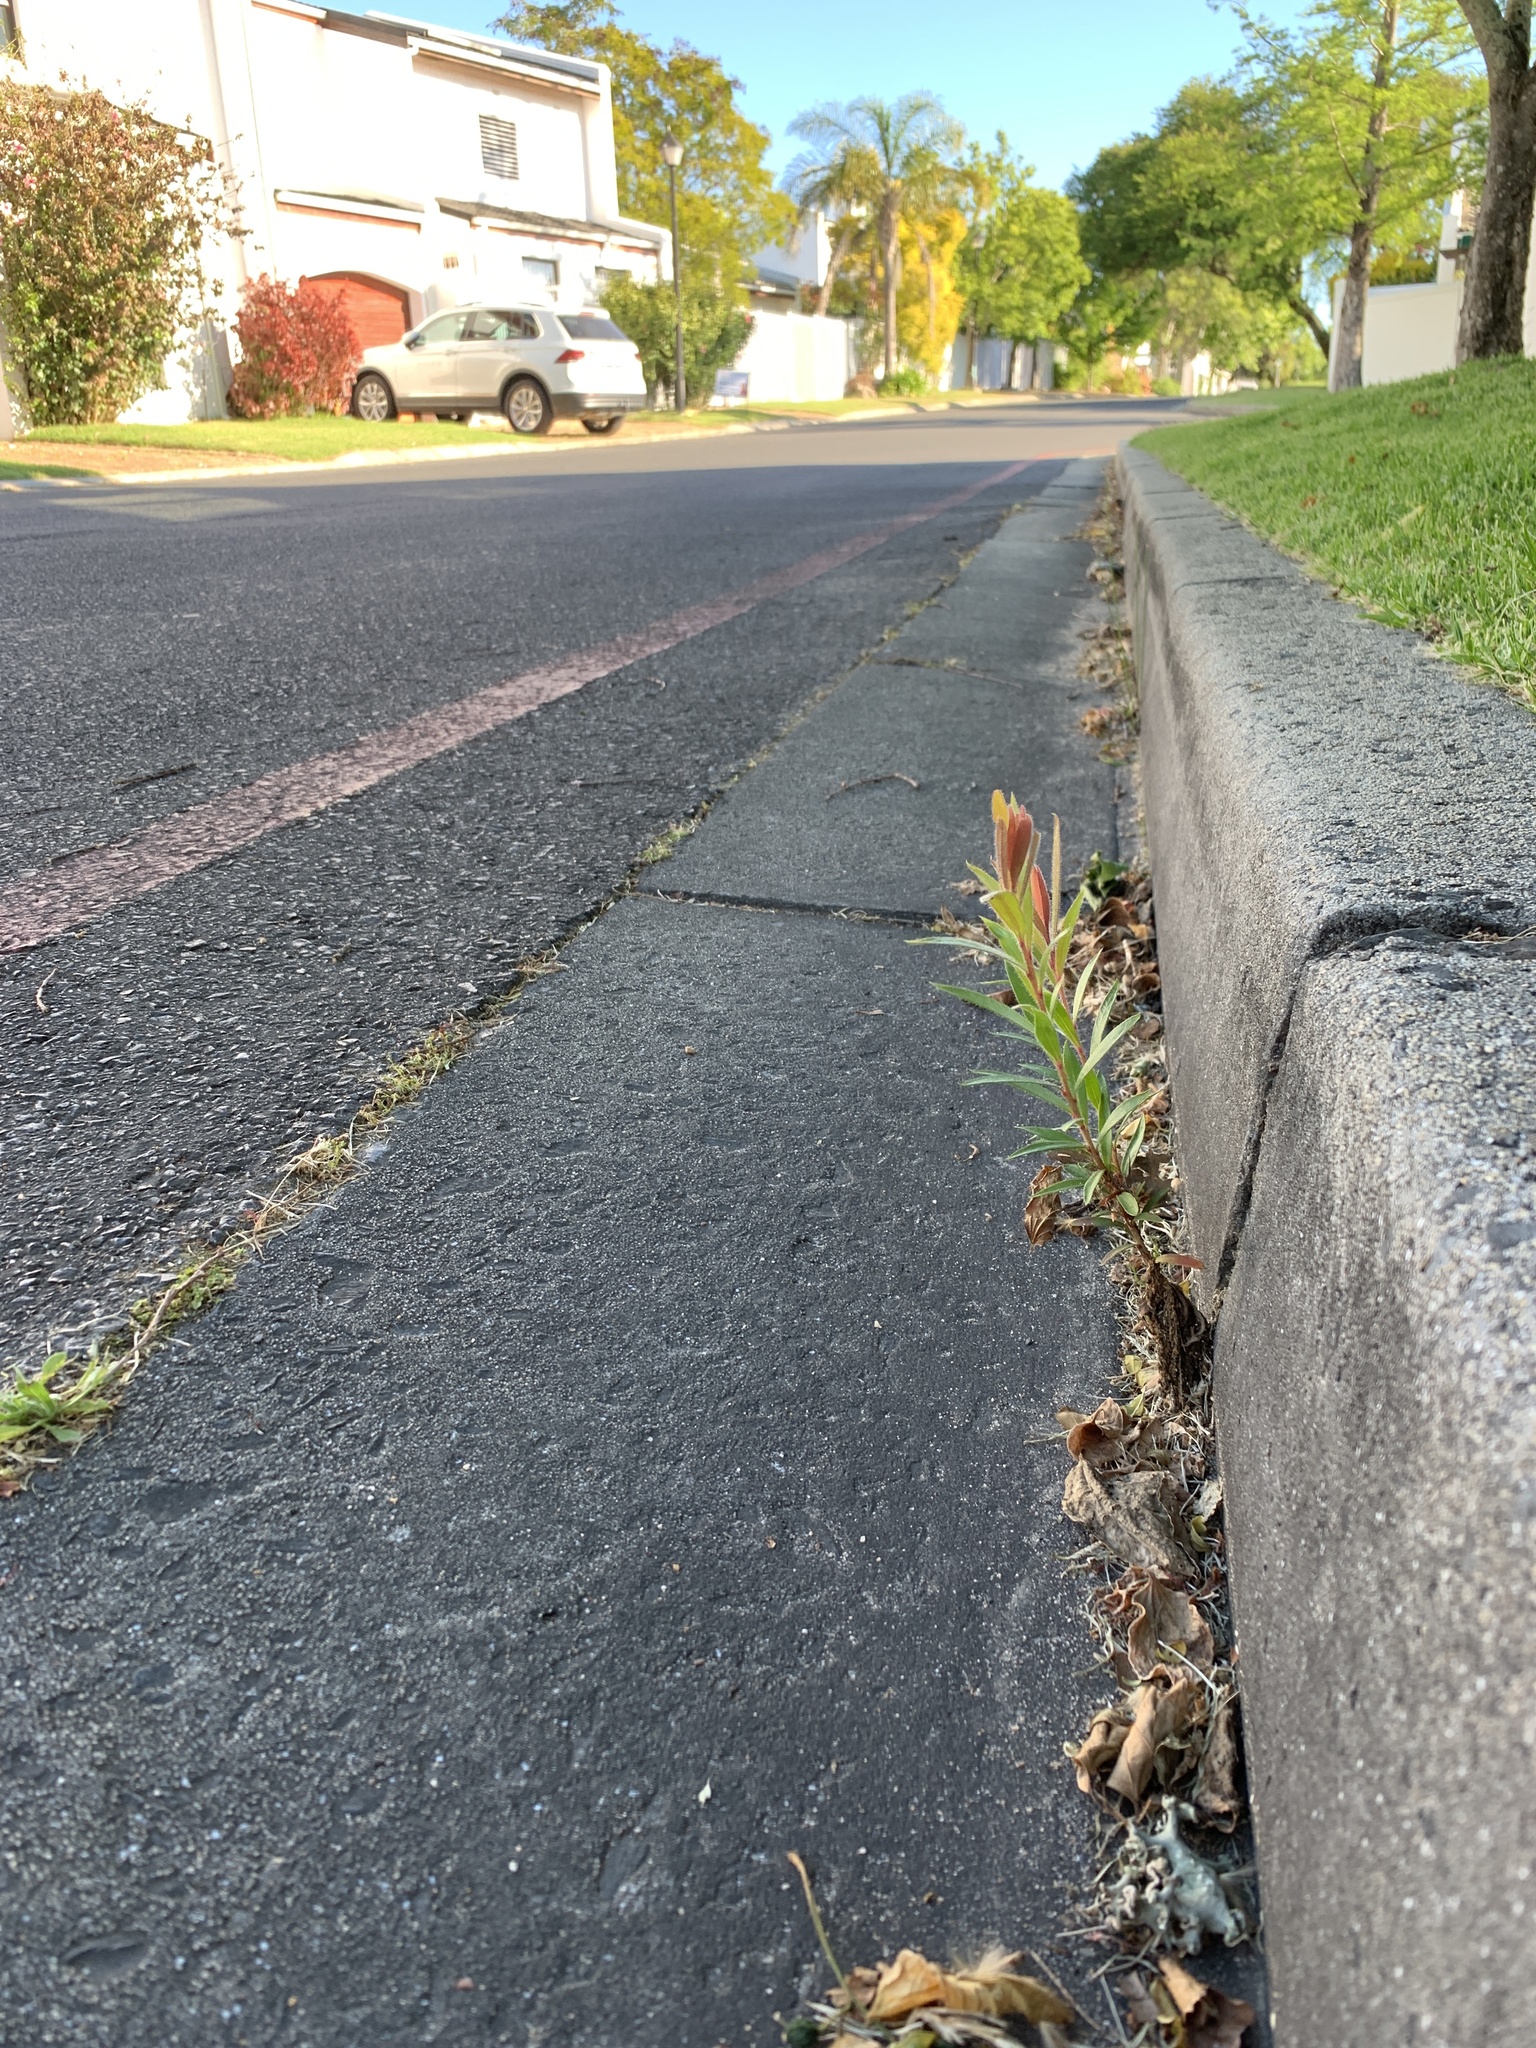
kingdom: Plantae
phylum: Tracheophyta
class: Magnoliopsida
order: Myrtales
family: Myrtaceae
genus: Callistemon
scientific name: Callistemon viminalis
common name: Drooping bottlebrush
